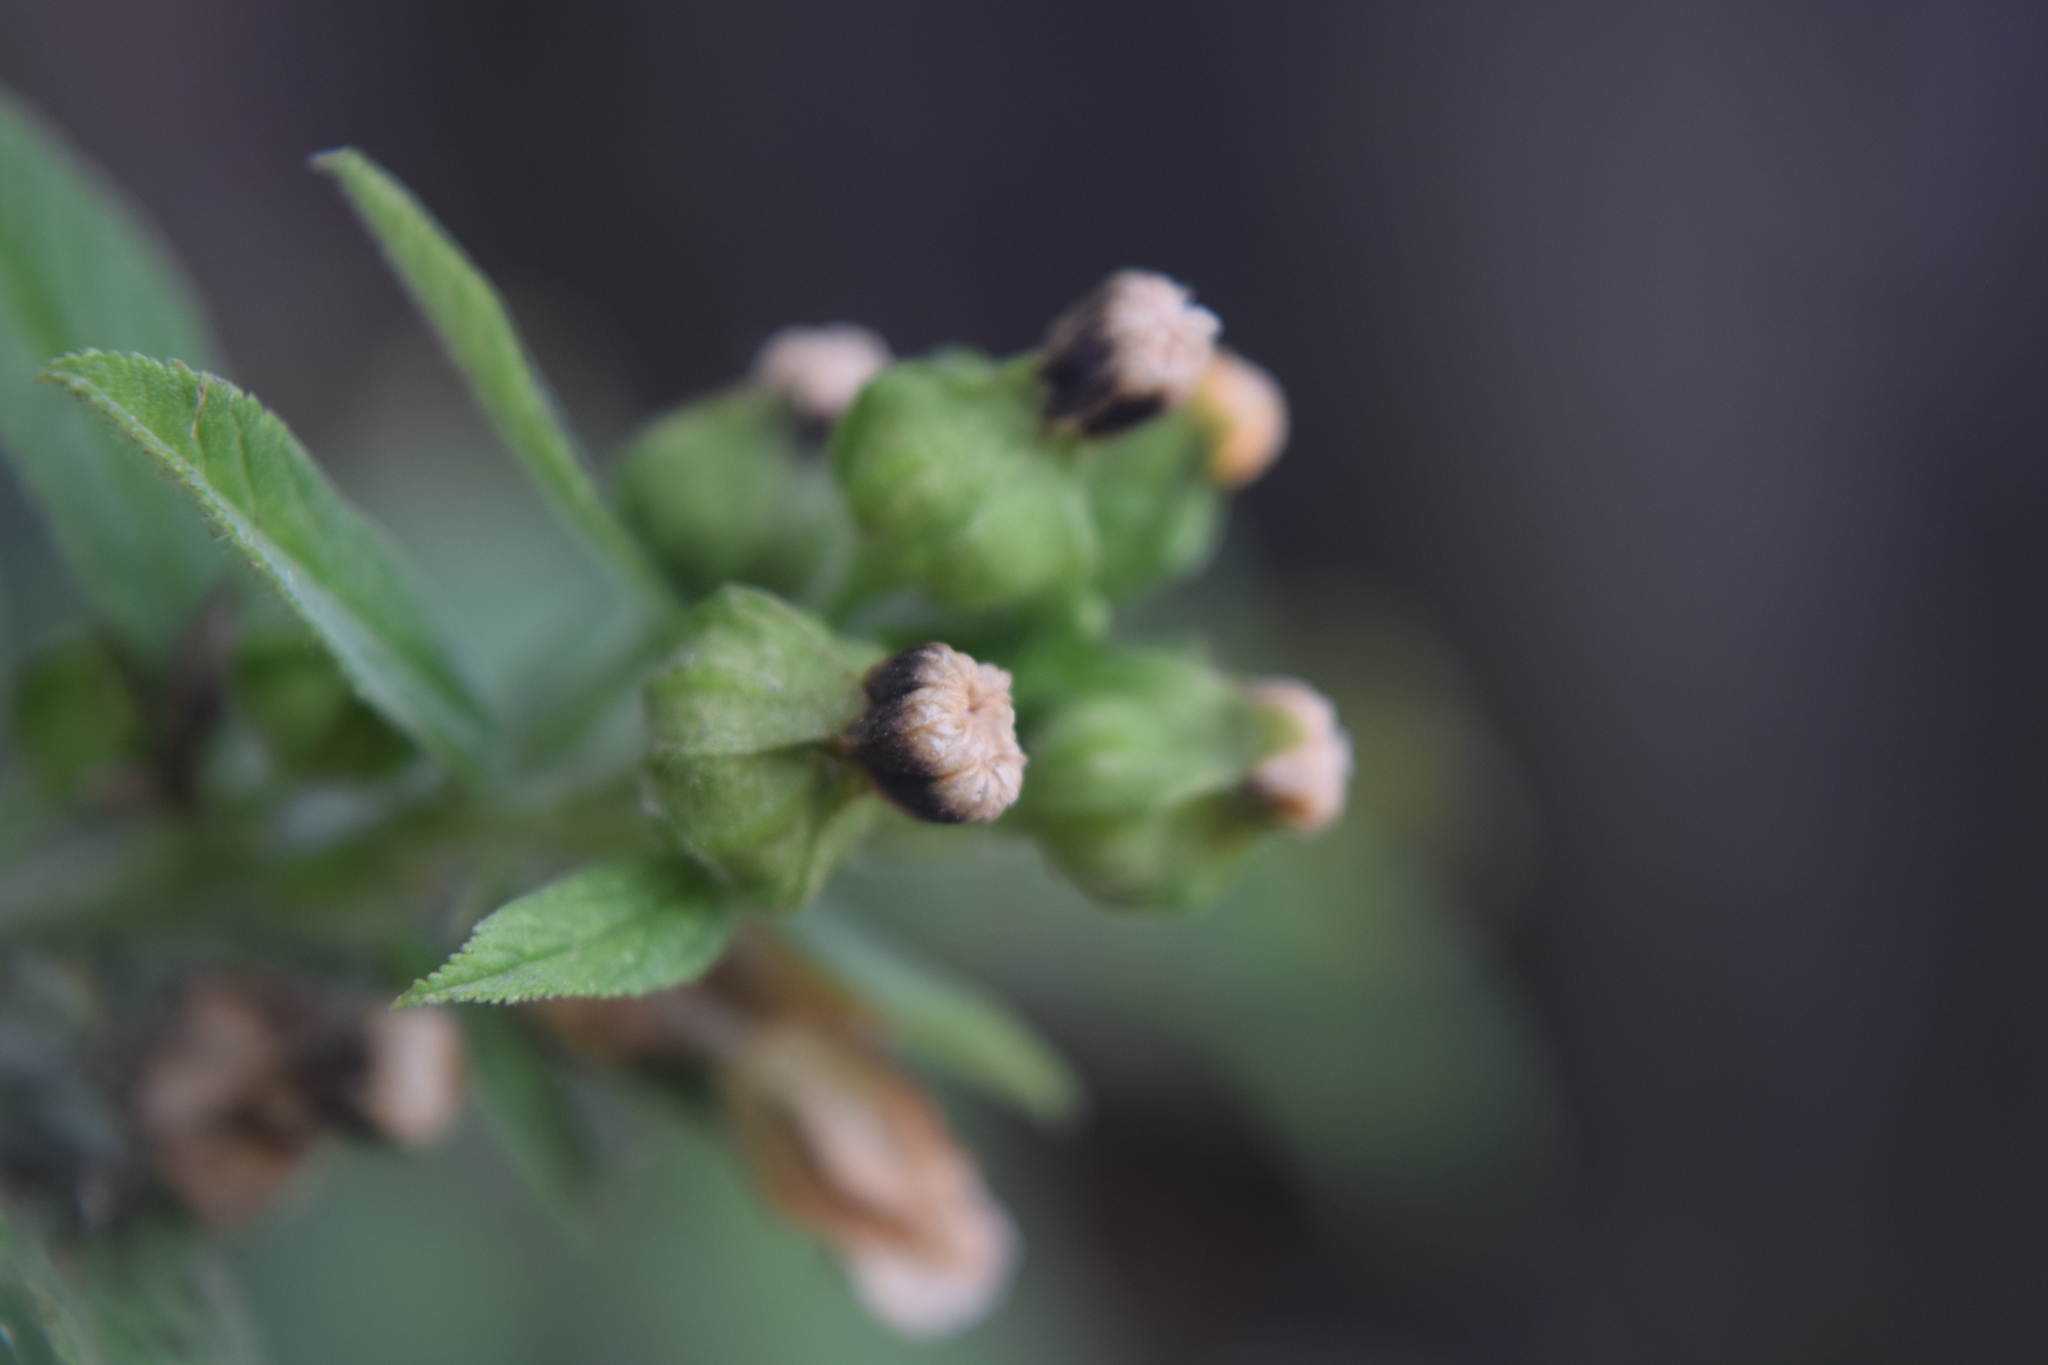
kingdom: Plantae
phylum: Tracheophyta
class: Magnoliopsida
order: Malvales
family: Malvaceae
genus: Sida
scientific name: Sida rhombifolia
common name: Queensland-hemp
